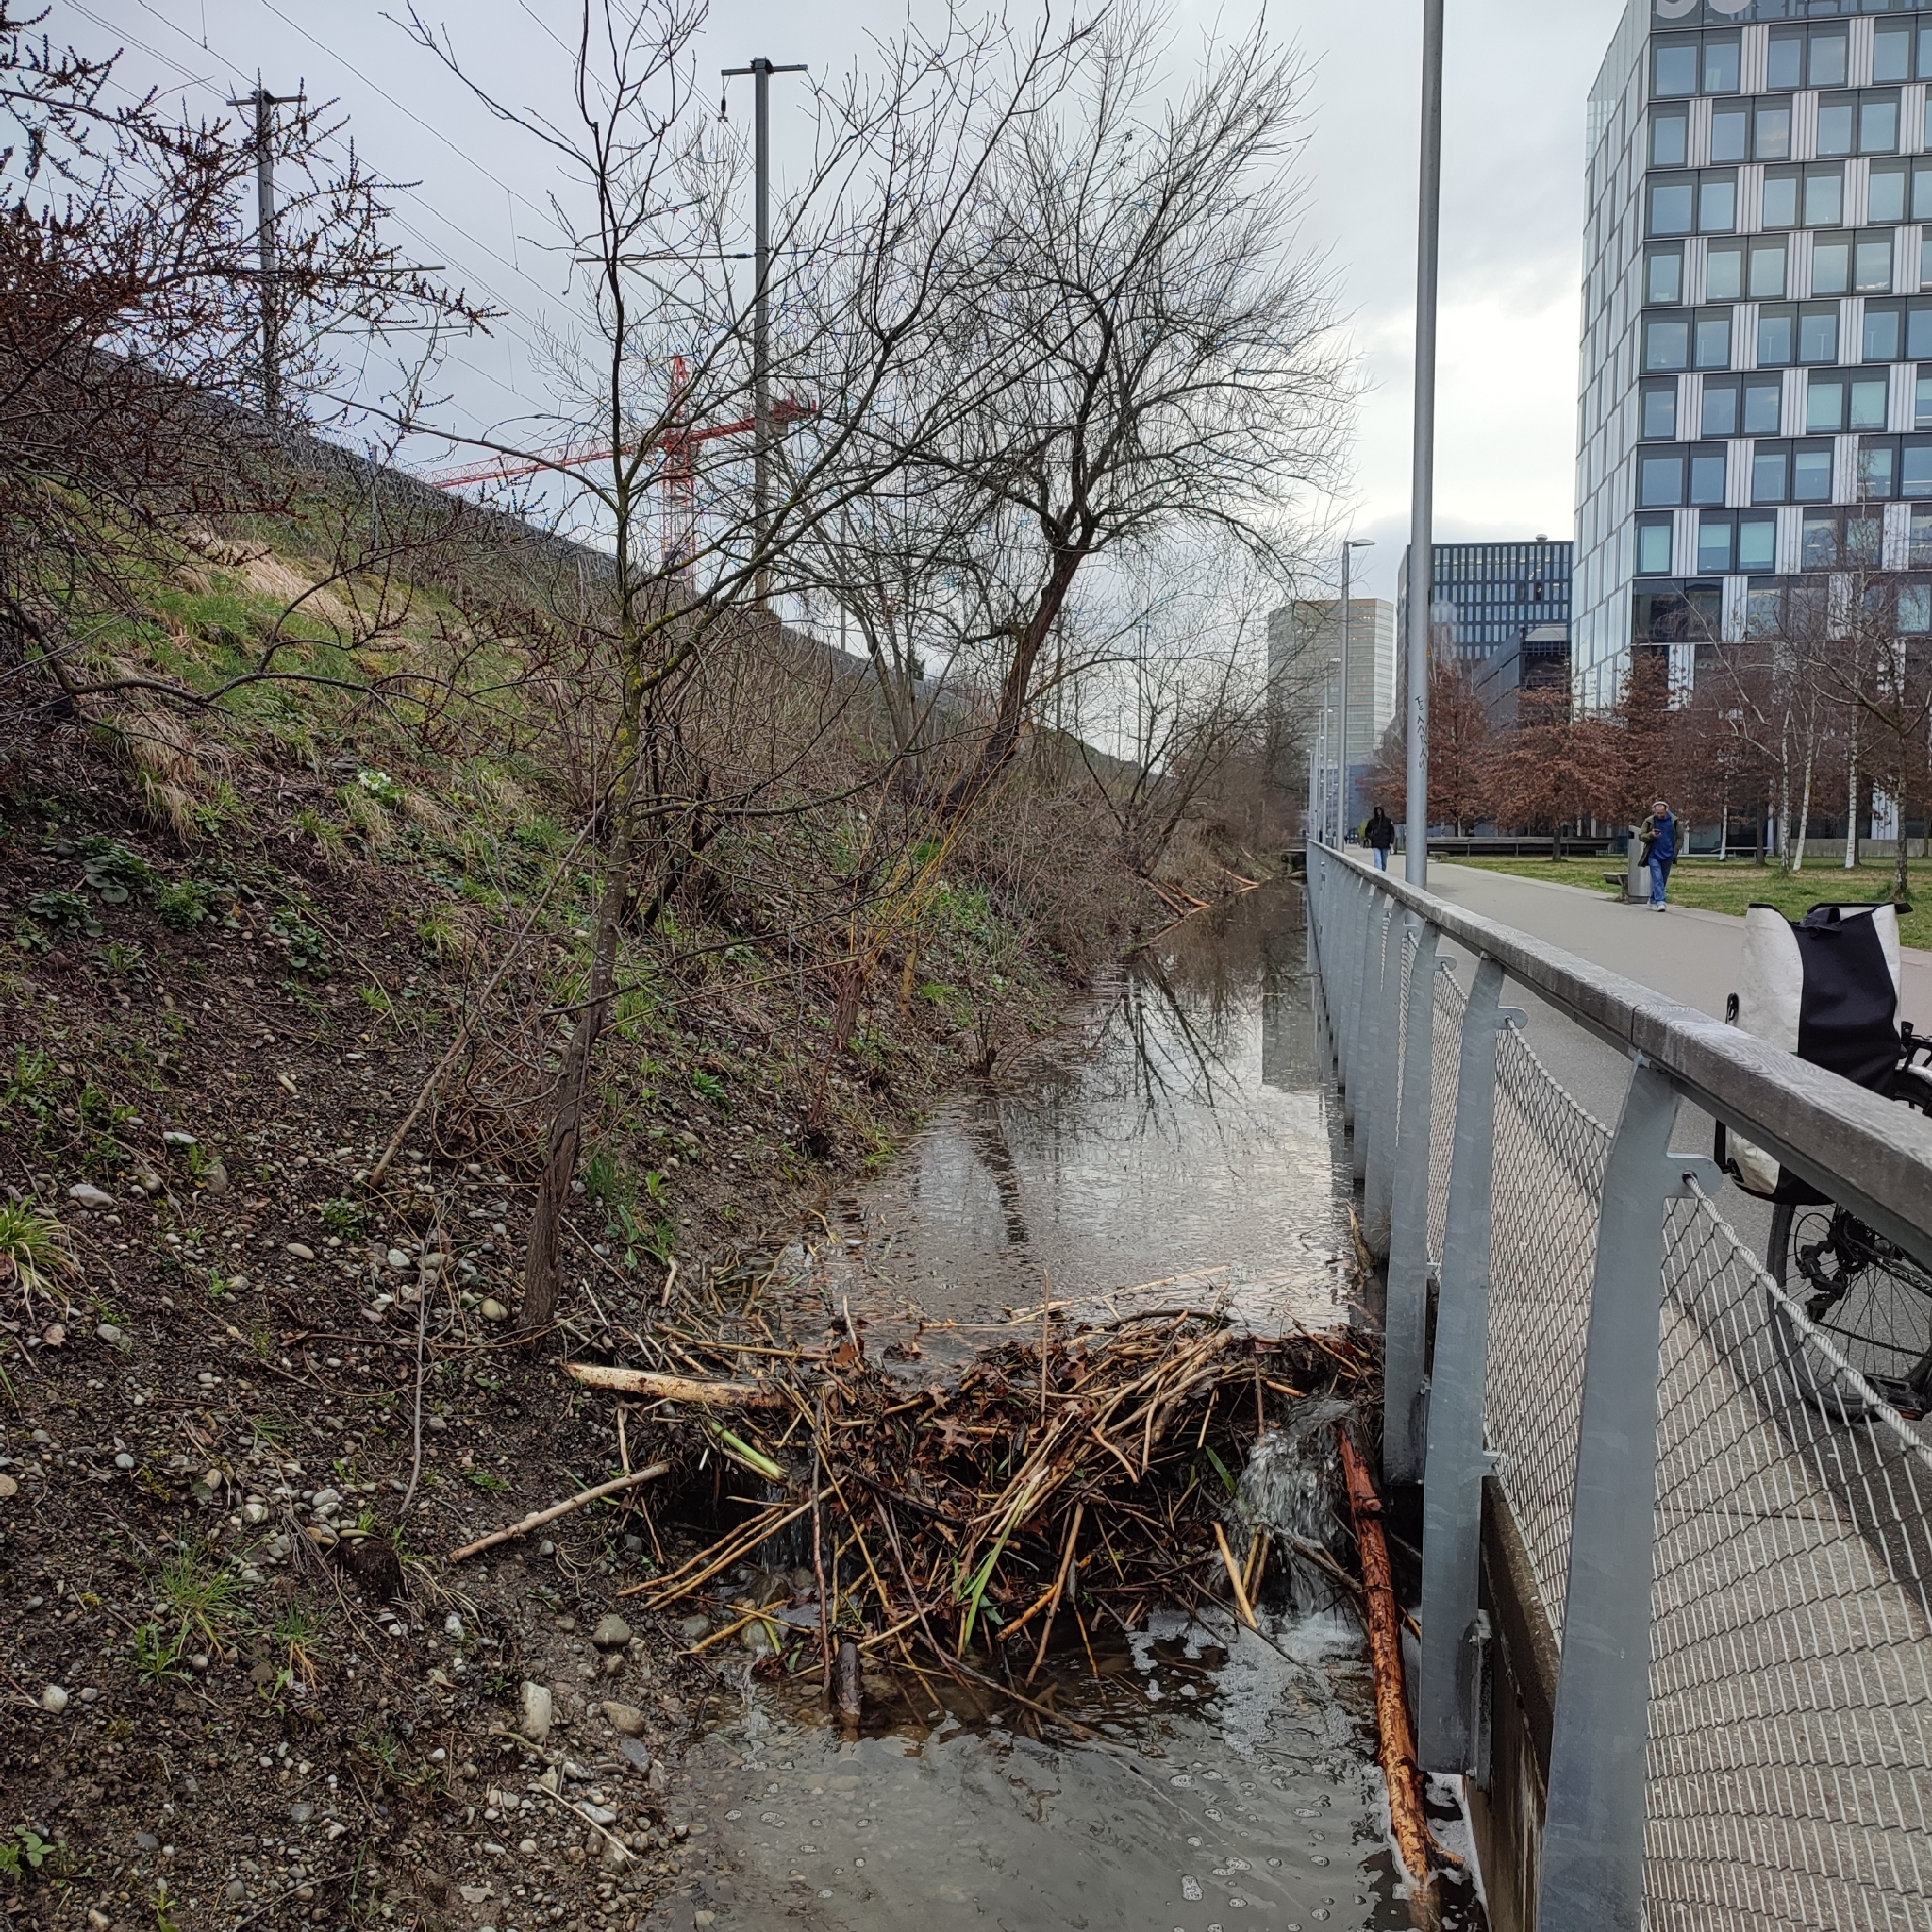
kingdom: Animalia
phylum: Chordata
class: Mammalia
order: Rodentia
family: Castoridae
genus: Castor
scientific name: Castor fiber
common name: Eurasian beaver
